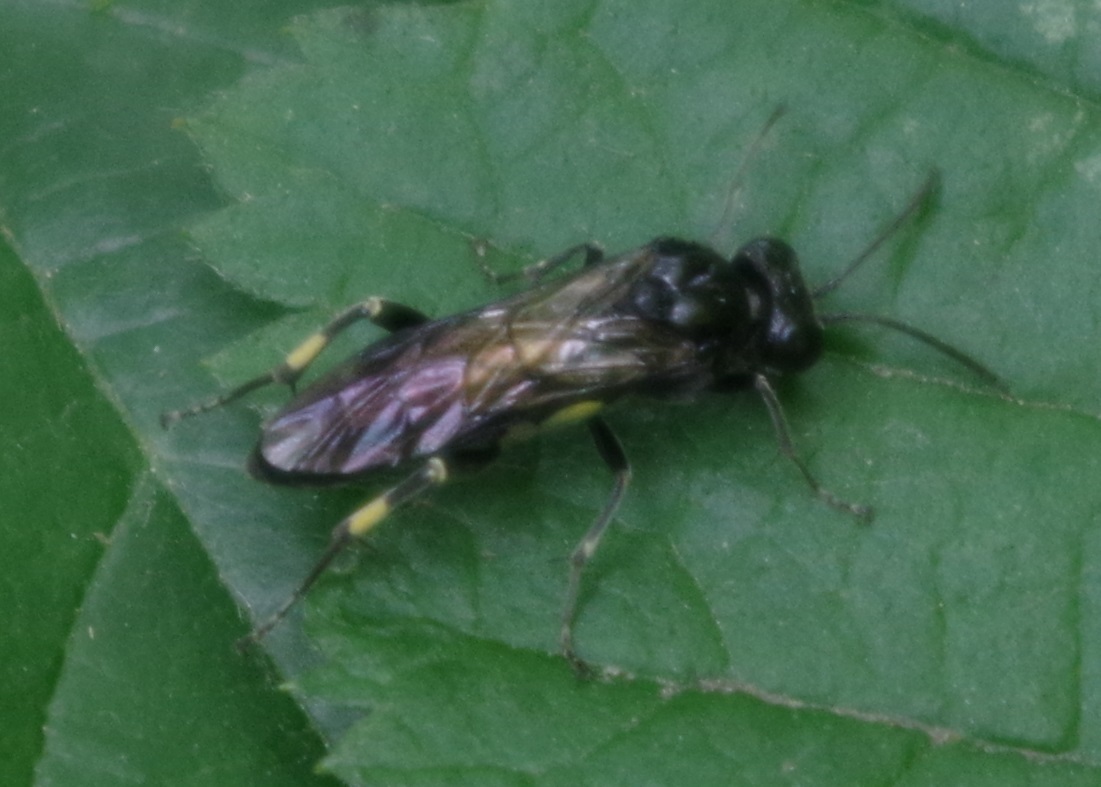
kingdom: Animalia
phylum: Arthropoda
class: Insecta
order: Hymenoptera
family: Tenthredinidae
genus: Macrophya
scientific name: Macrophya ribis
